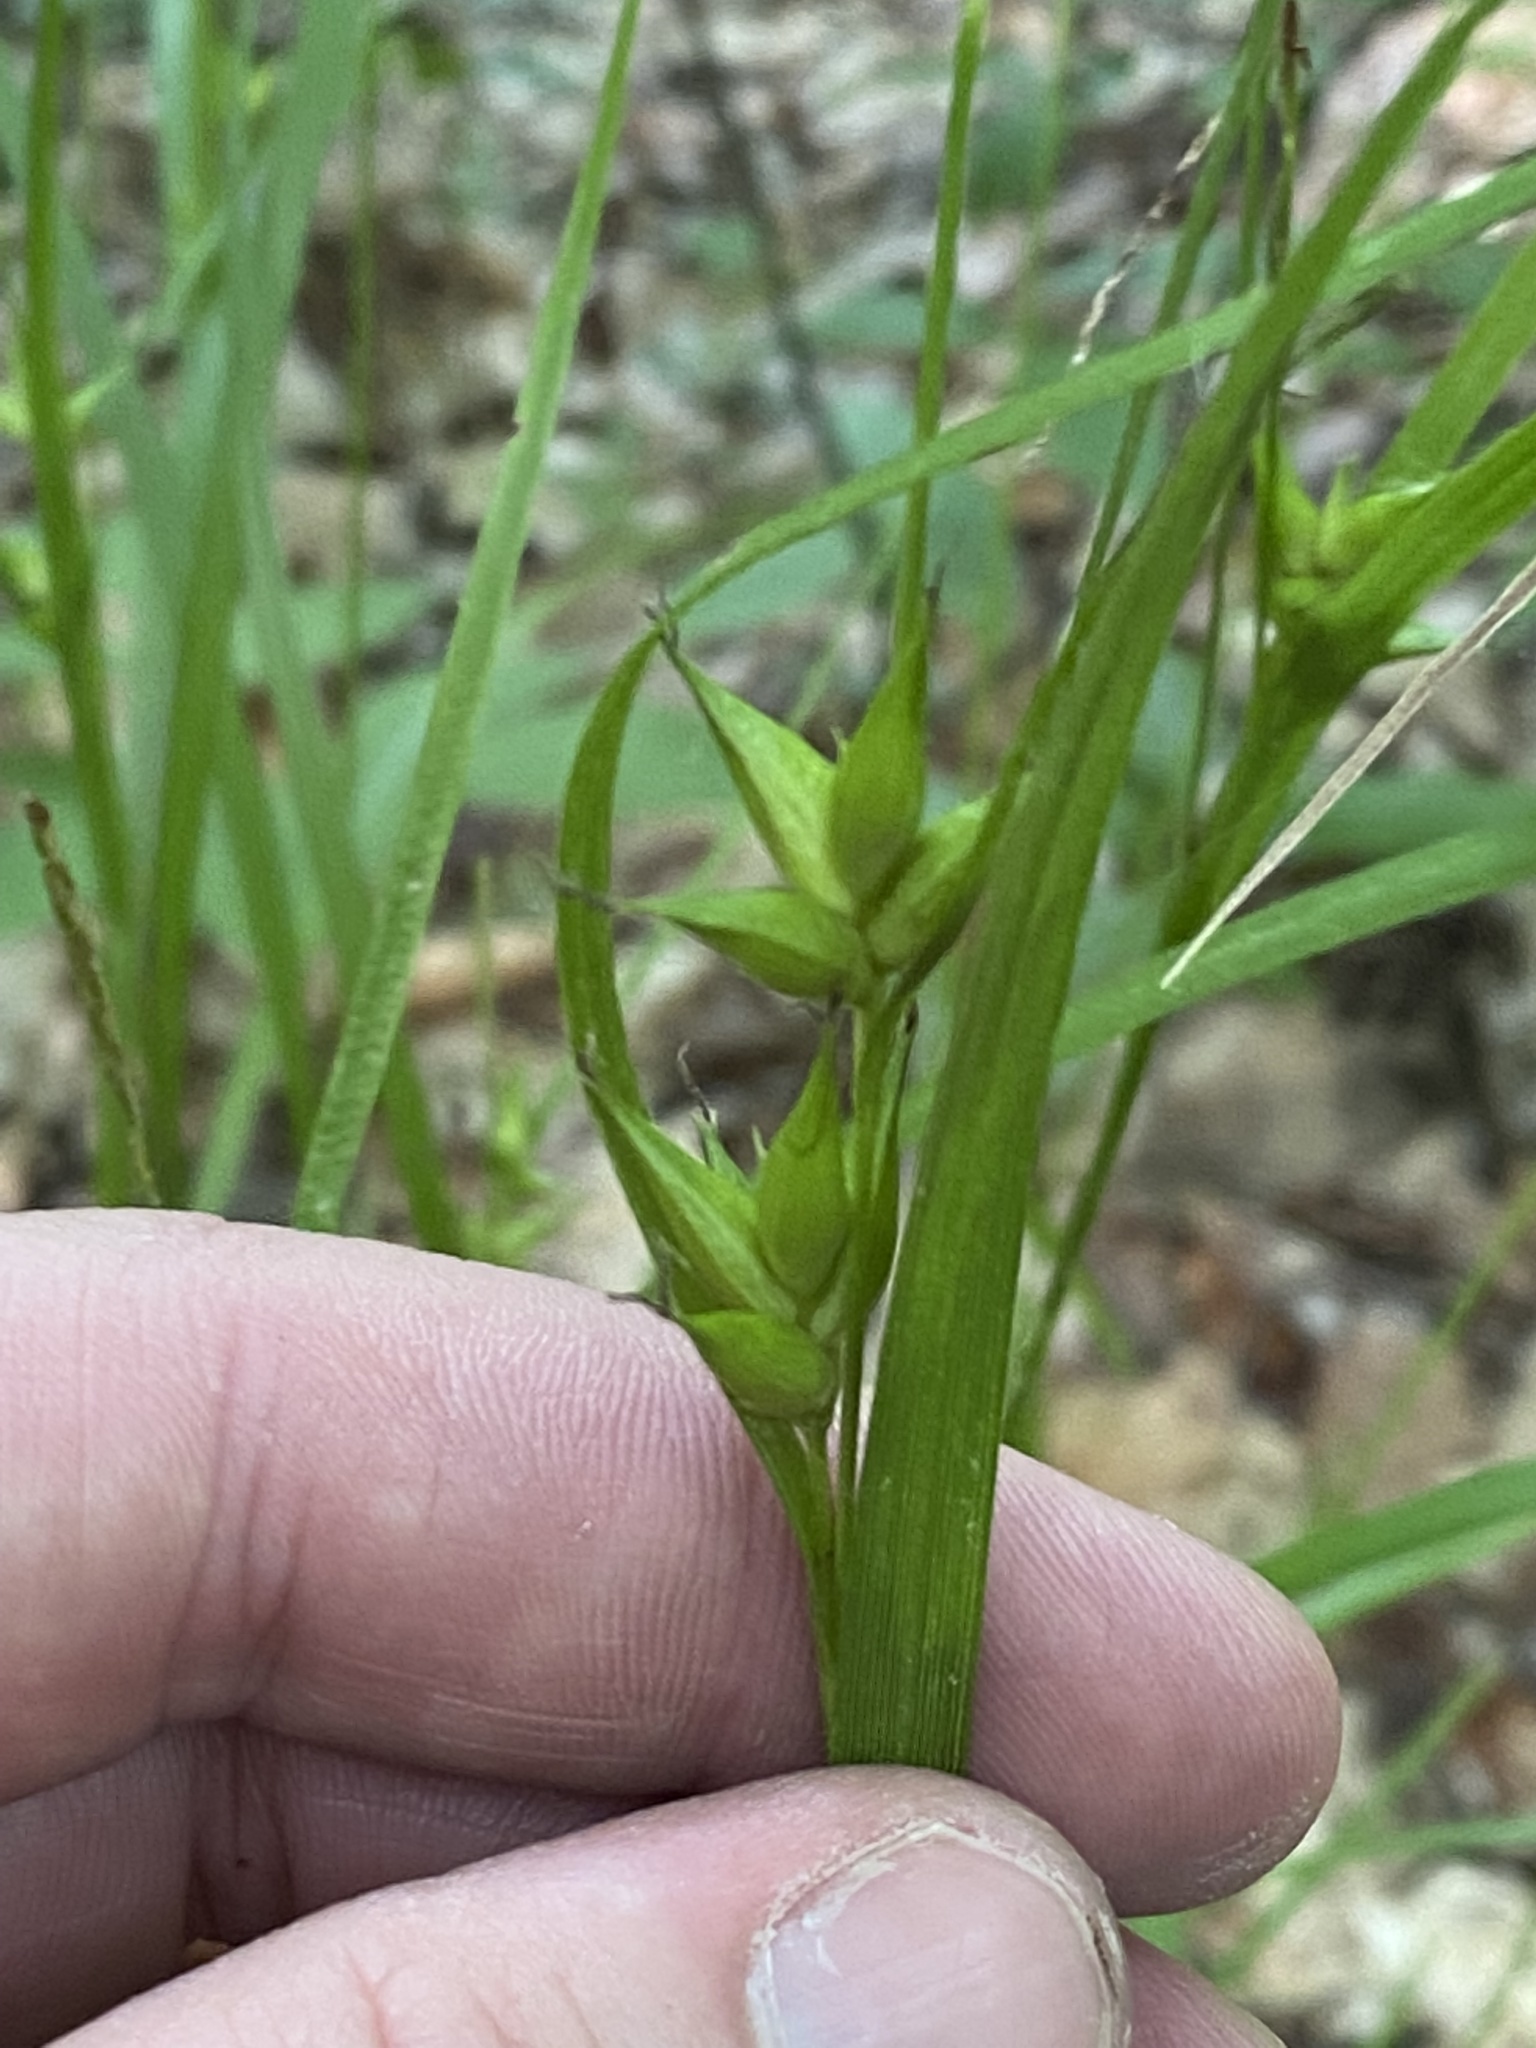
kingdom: Plantae
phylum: Tracheophyta
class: Liliopsida
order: Poales
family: Cyperaceae
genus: Carex
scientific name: Carex intumescens
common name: Greater bladder sedge
